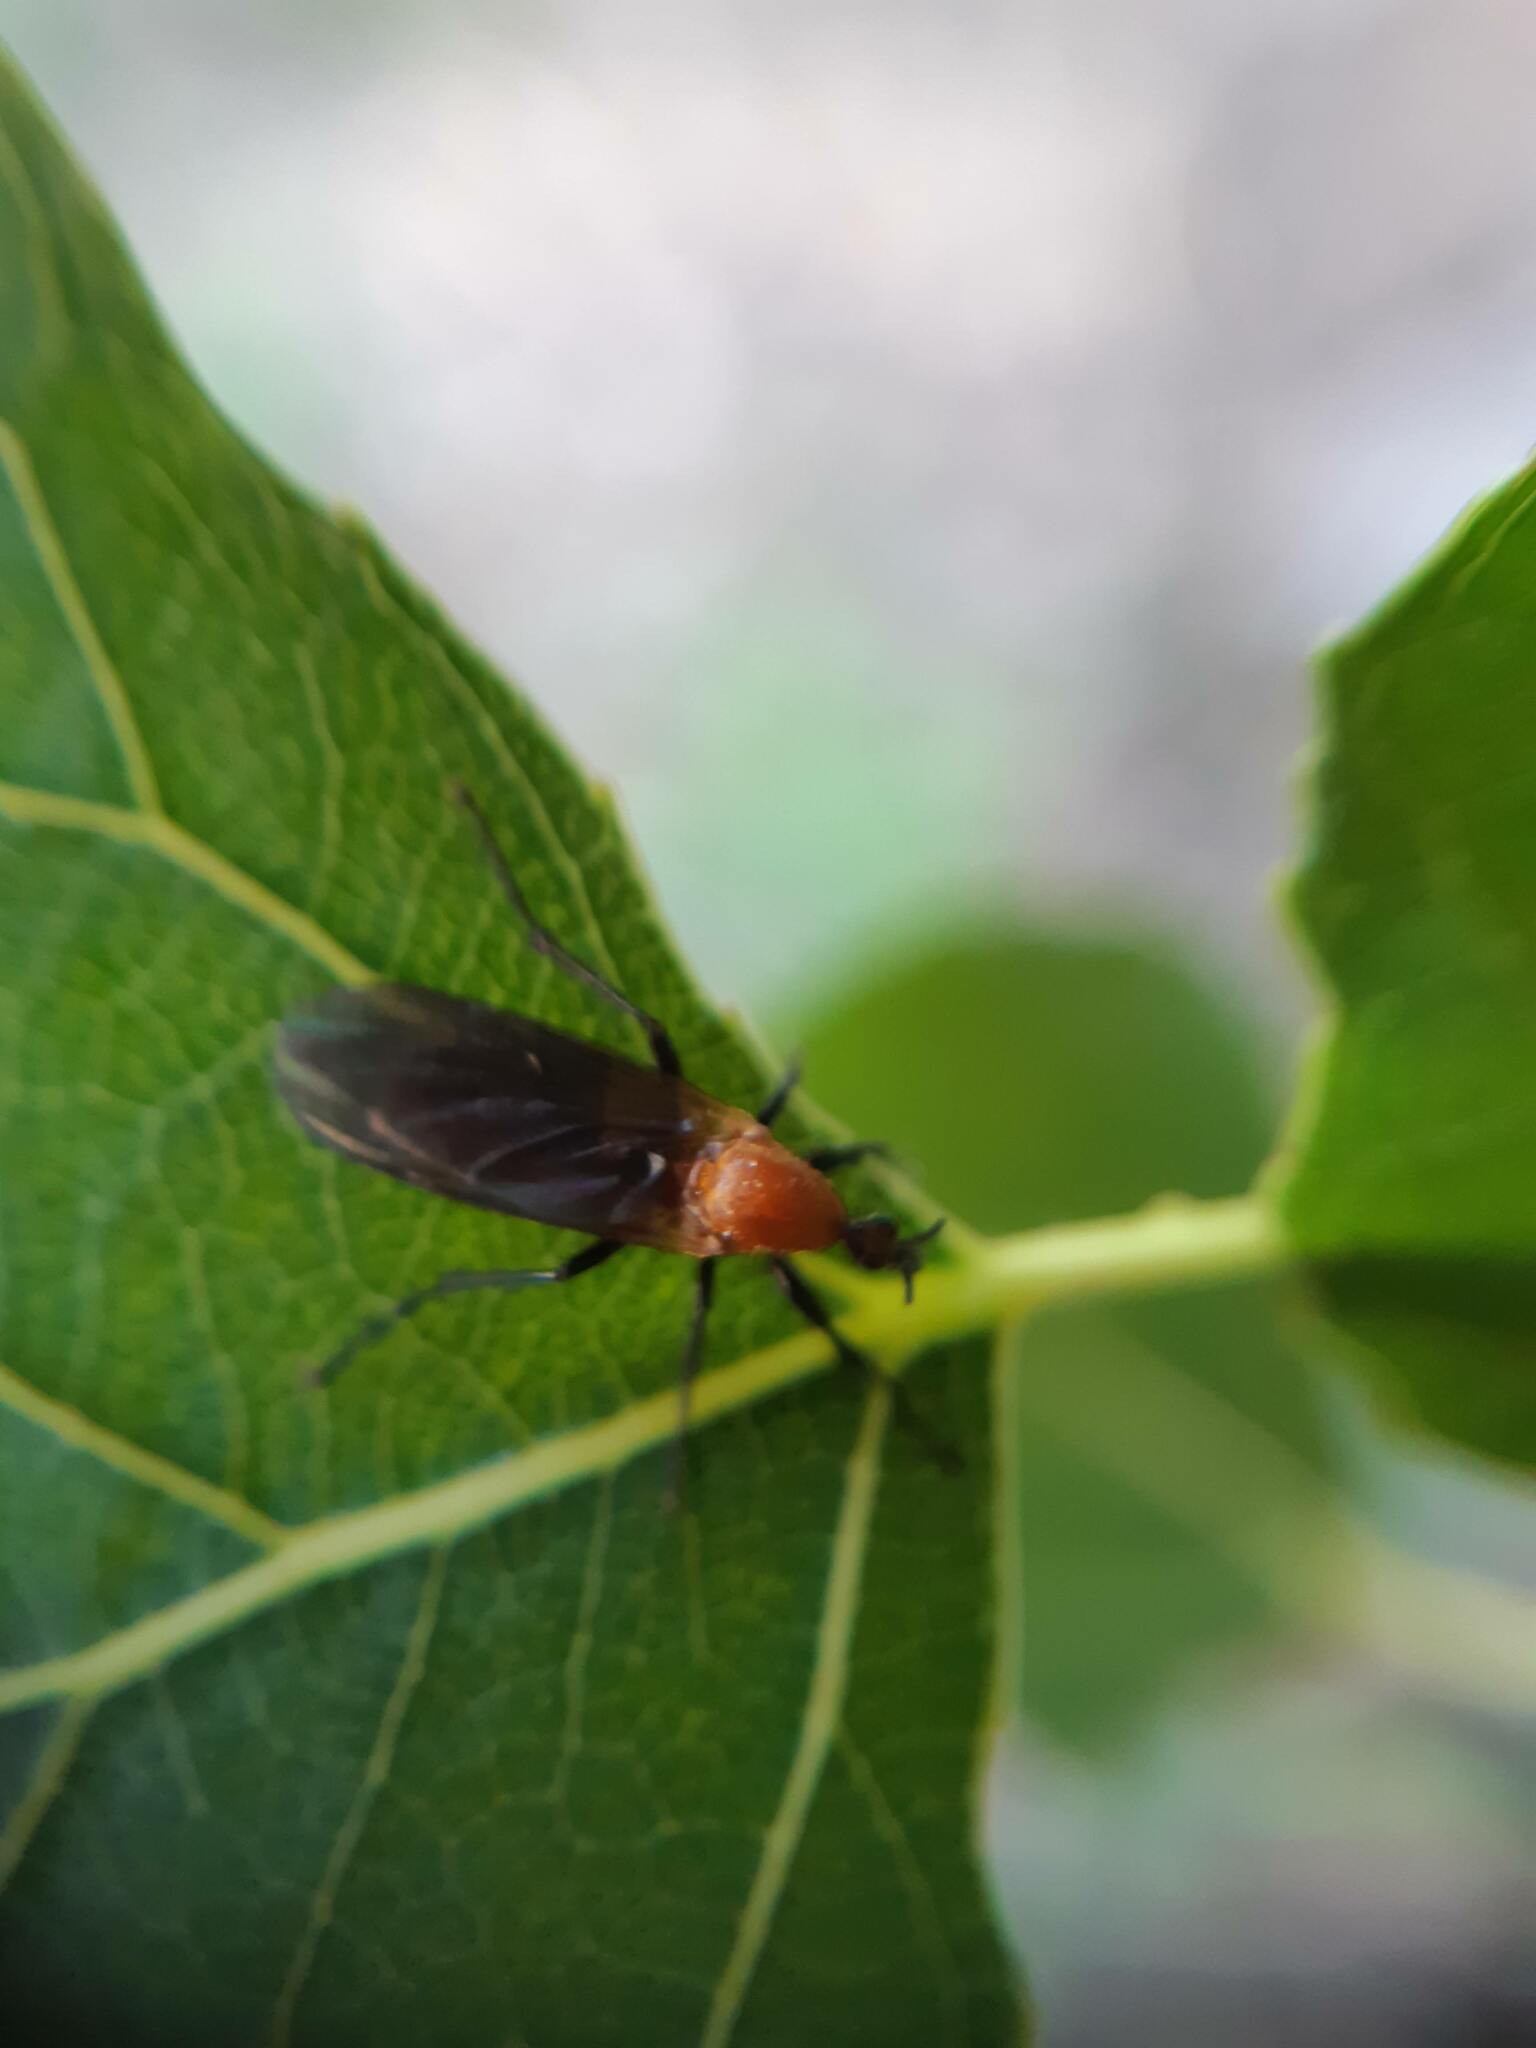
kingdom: Animalia
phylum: Arthropoda
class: Insecta
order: Diptera
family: Bibionidae
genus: Bibio
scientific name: Bibio imitator
